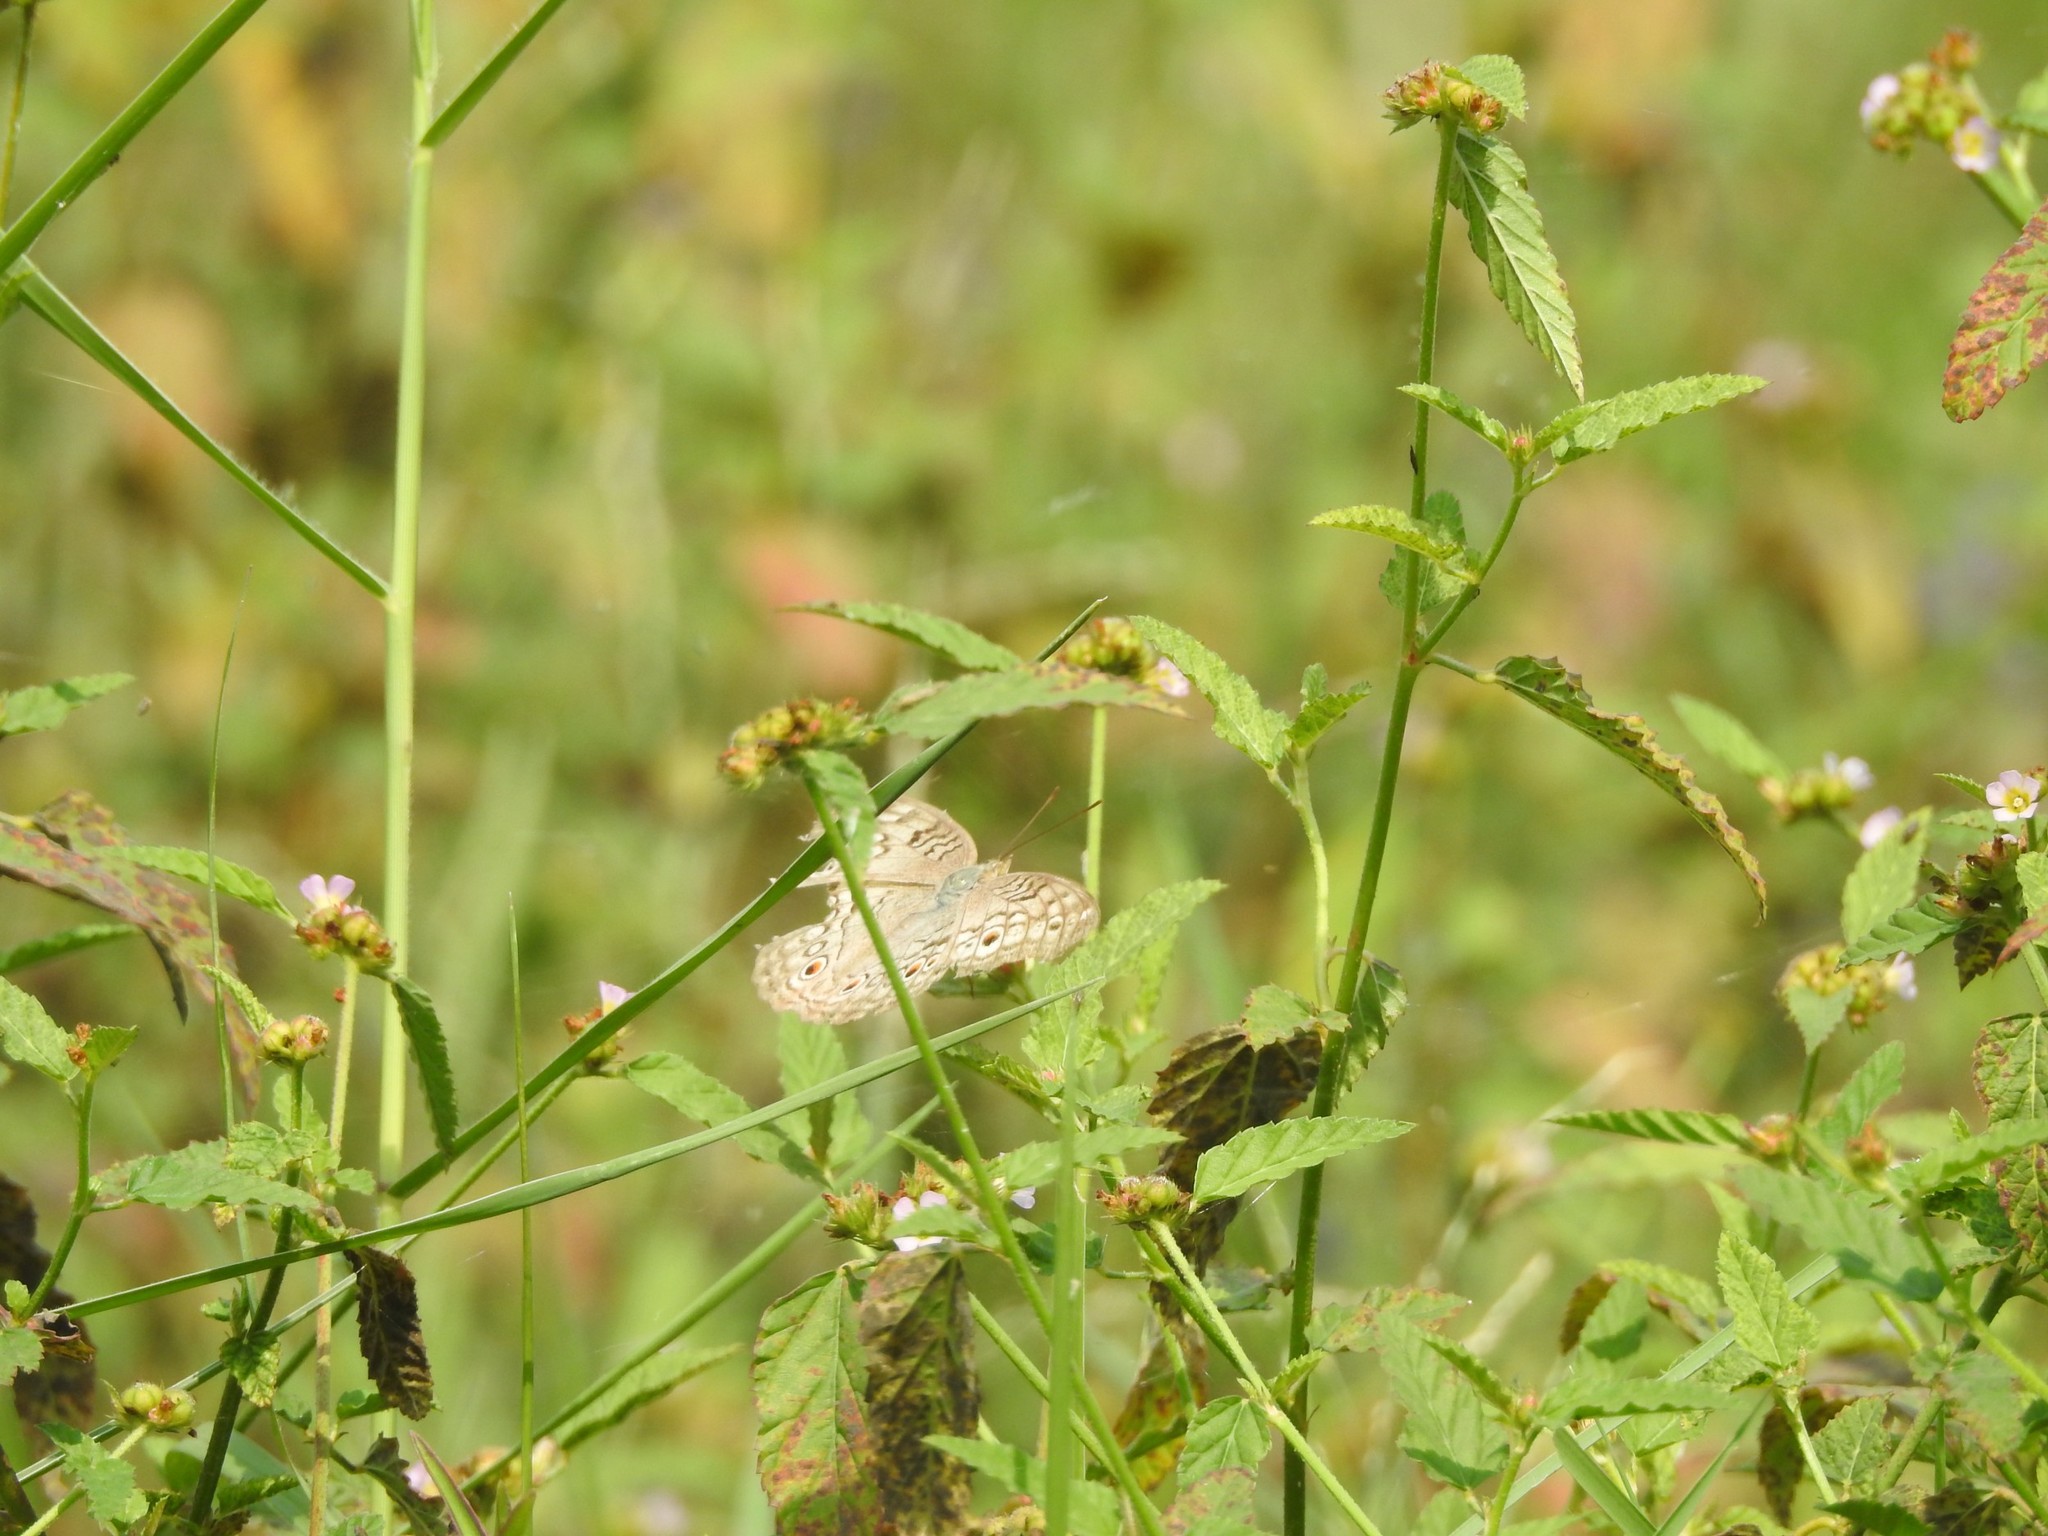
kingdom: Animalia
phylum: Arthropoda
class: Insecta
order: Lepidoptera
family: Nymphalidae
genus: Junonia
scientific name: Junonia atlites
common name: Grey pansy
